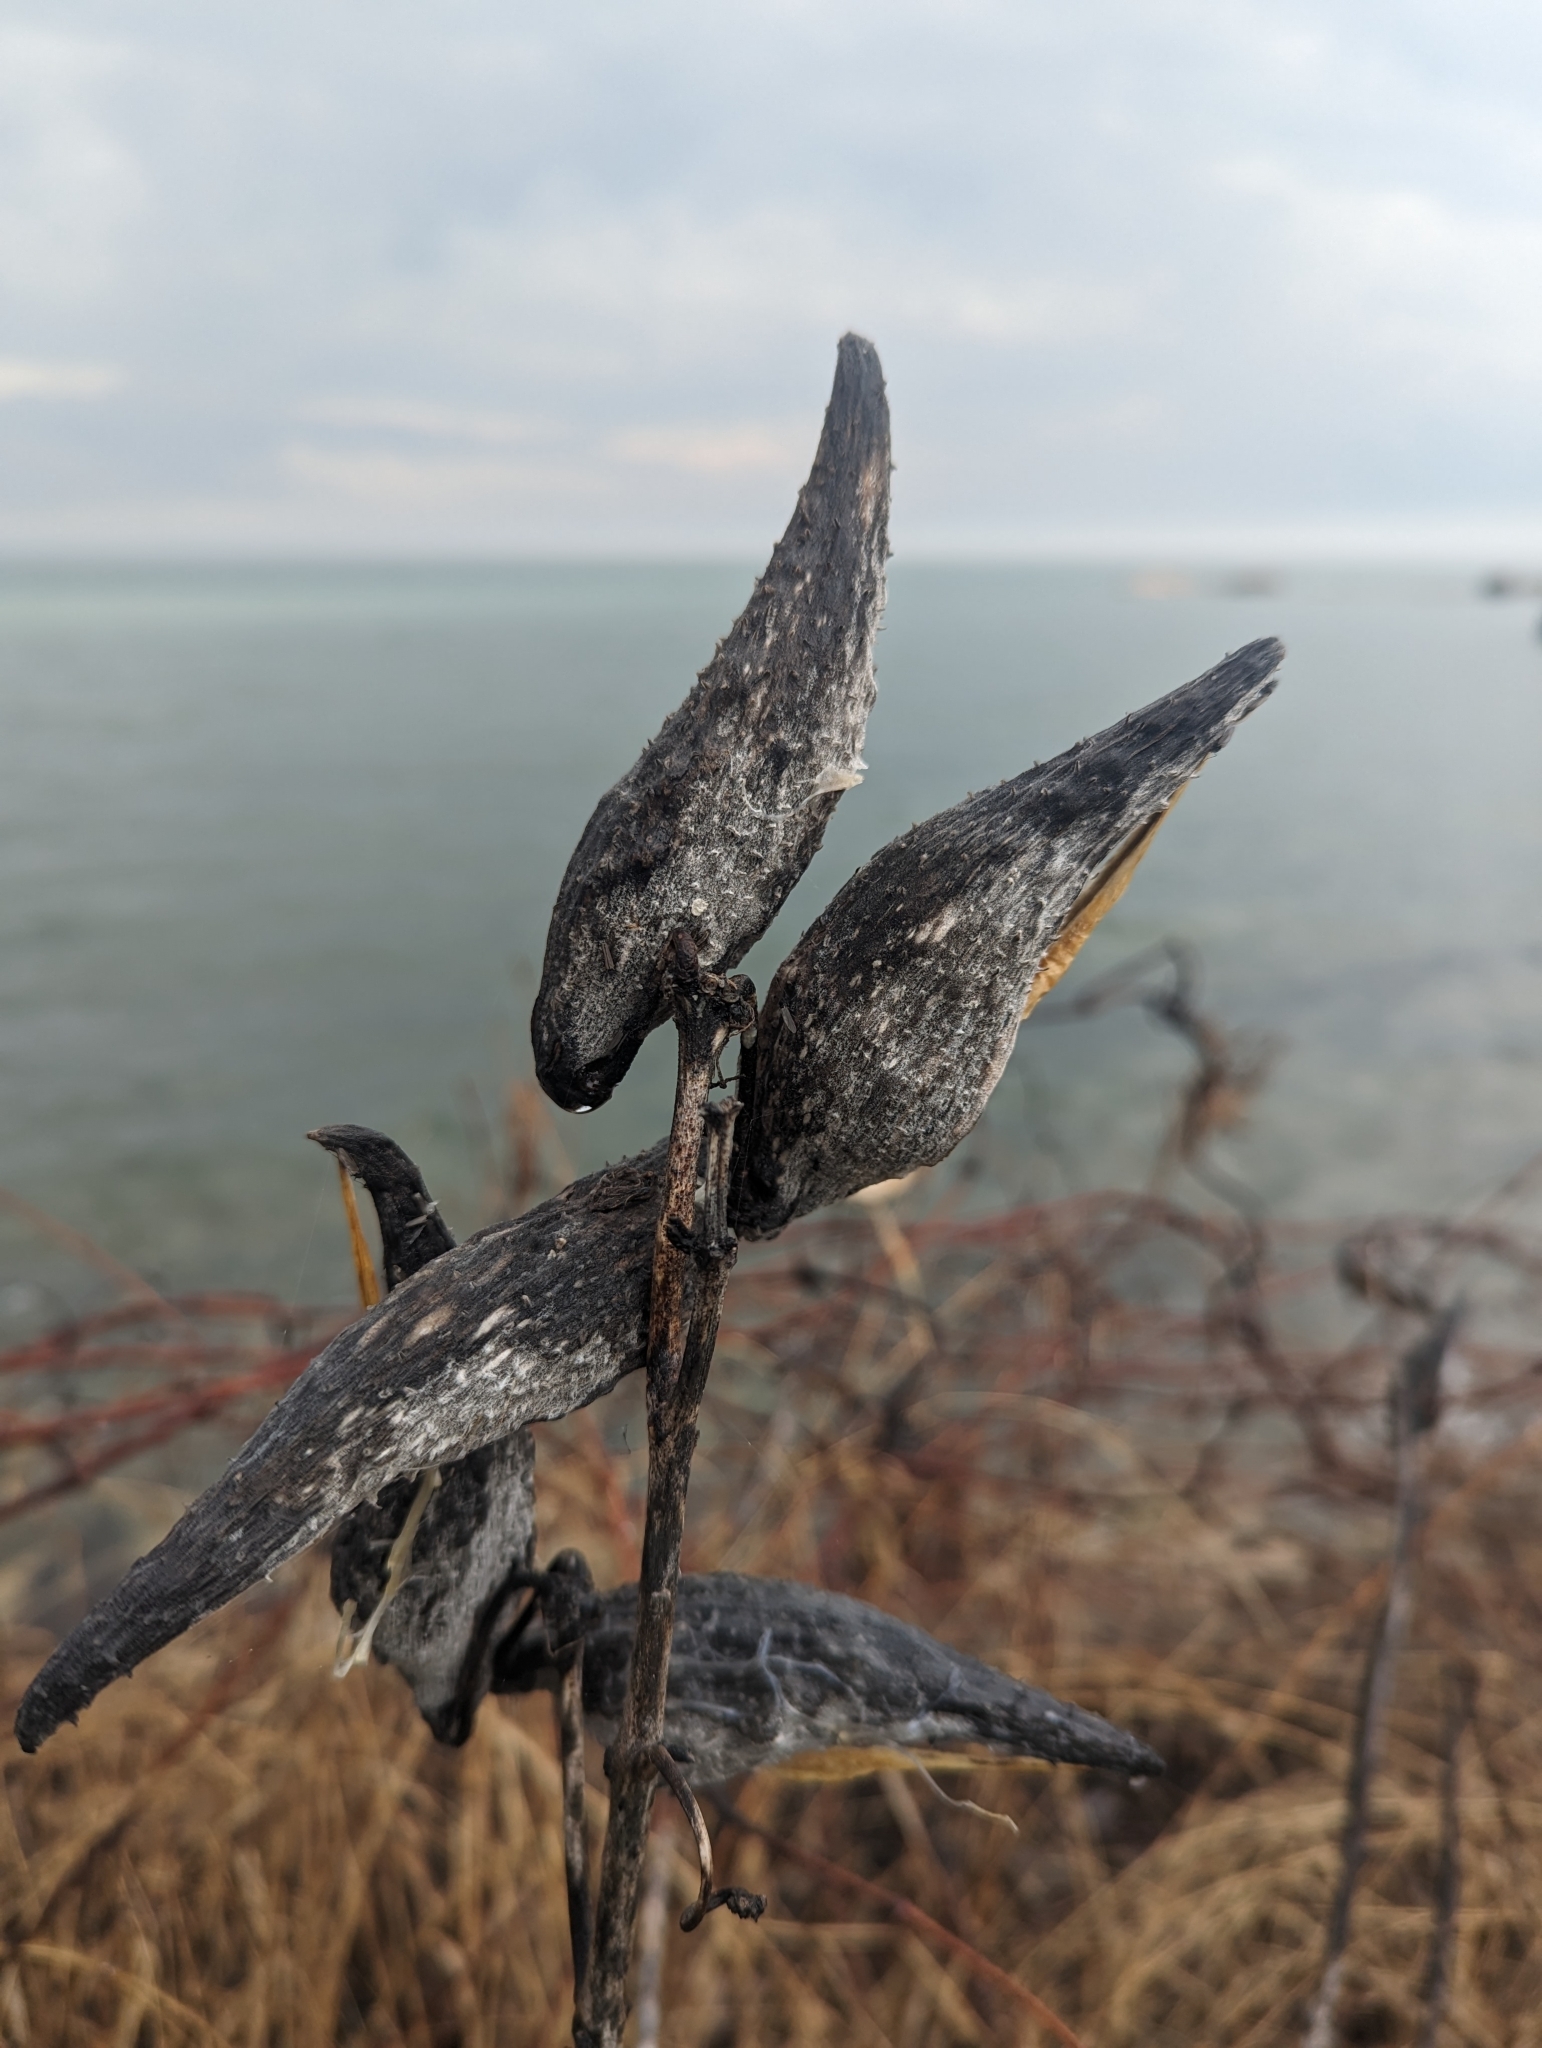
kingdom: Plantae
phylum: Tracheophyta
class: Magnoliopsida
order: Gentianales
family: Apocynaceae
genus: Asclepias
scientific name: Asclepias syriaca
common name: Common milkweed
